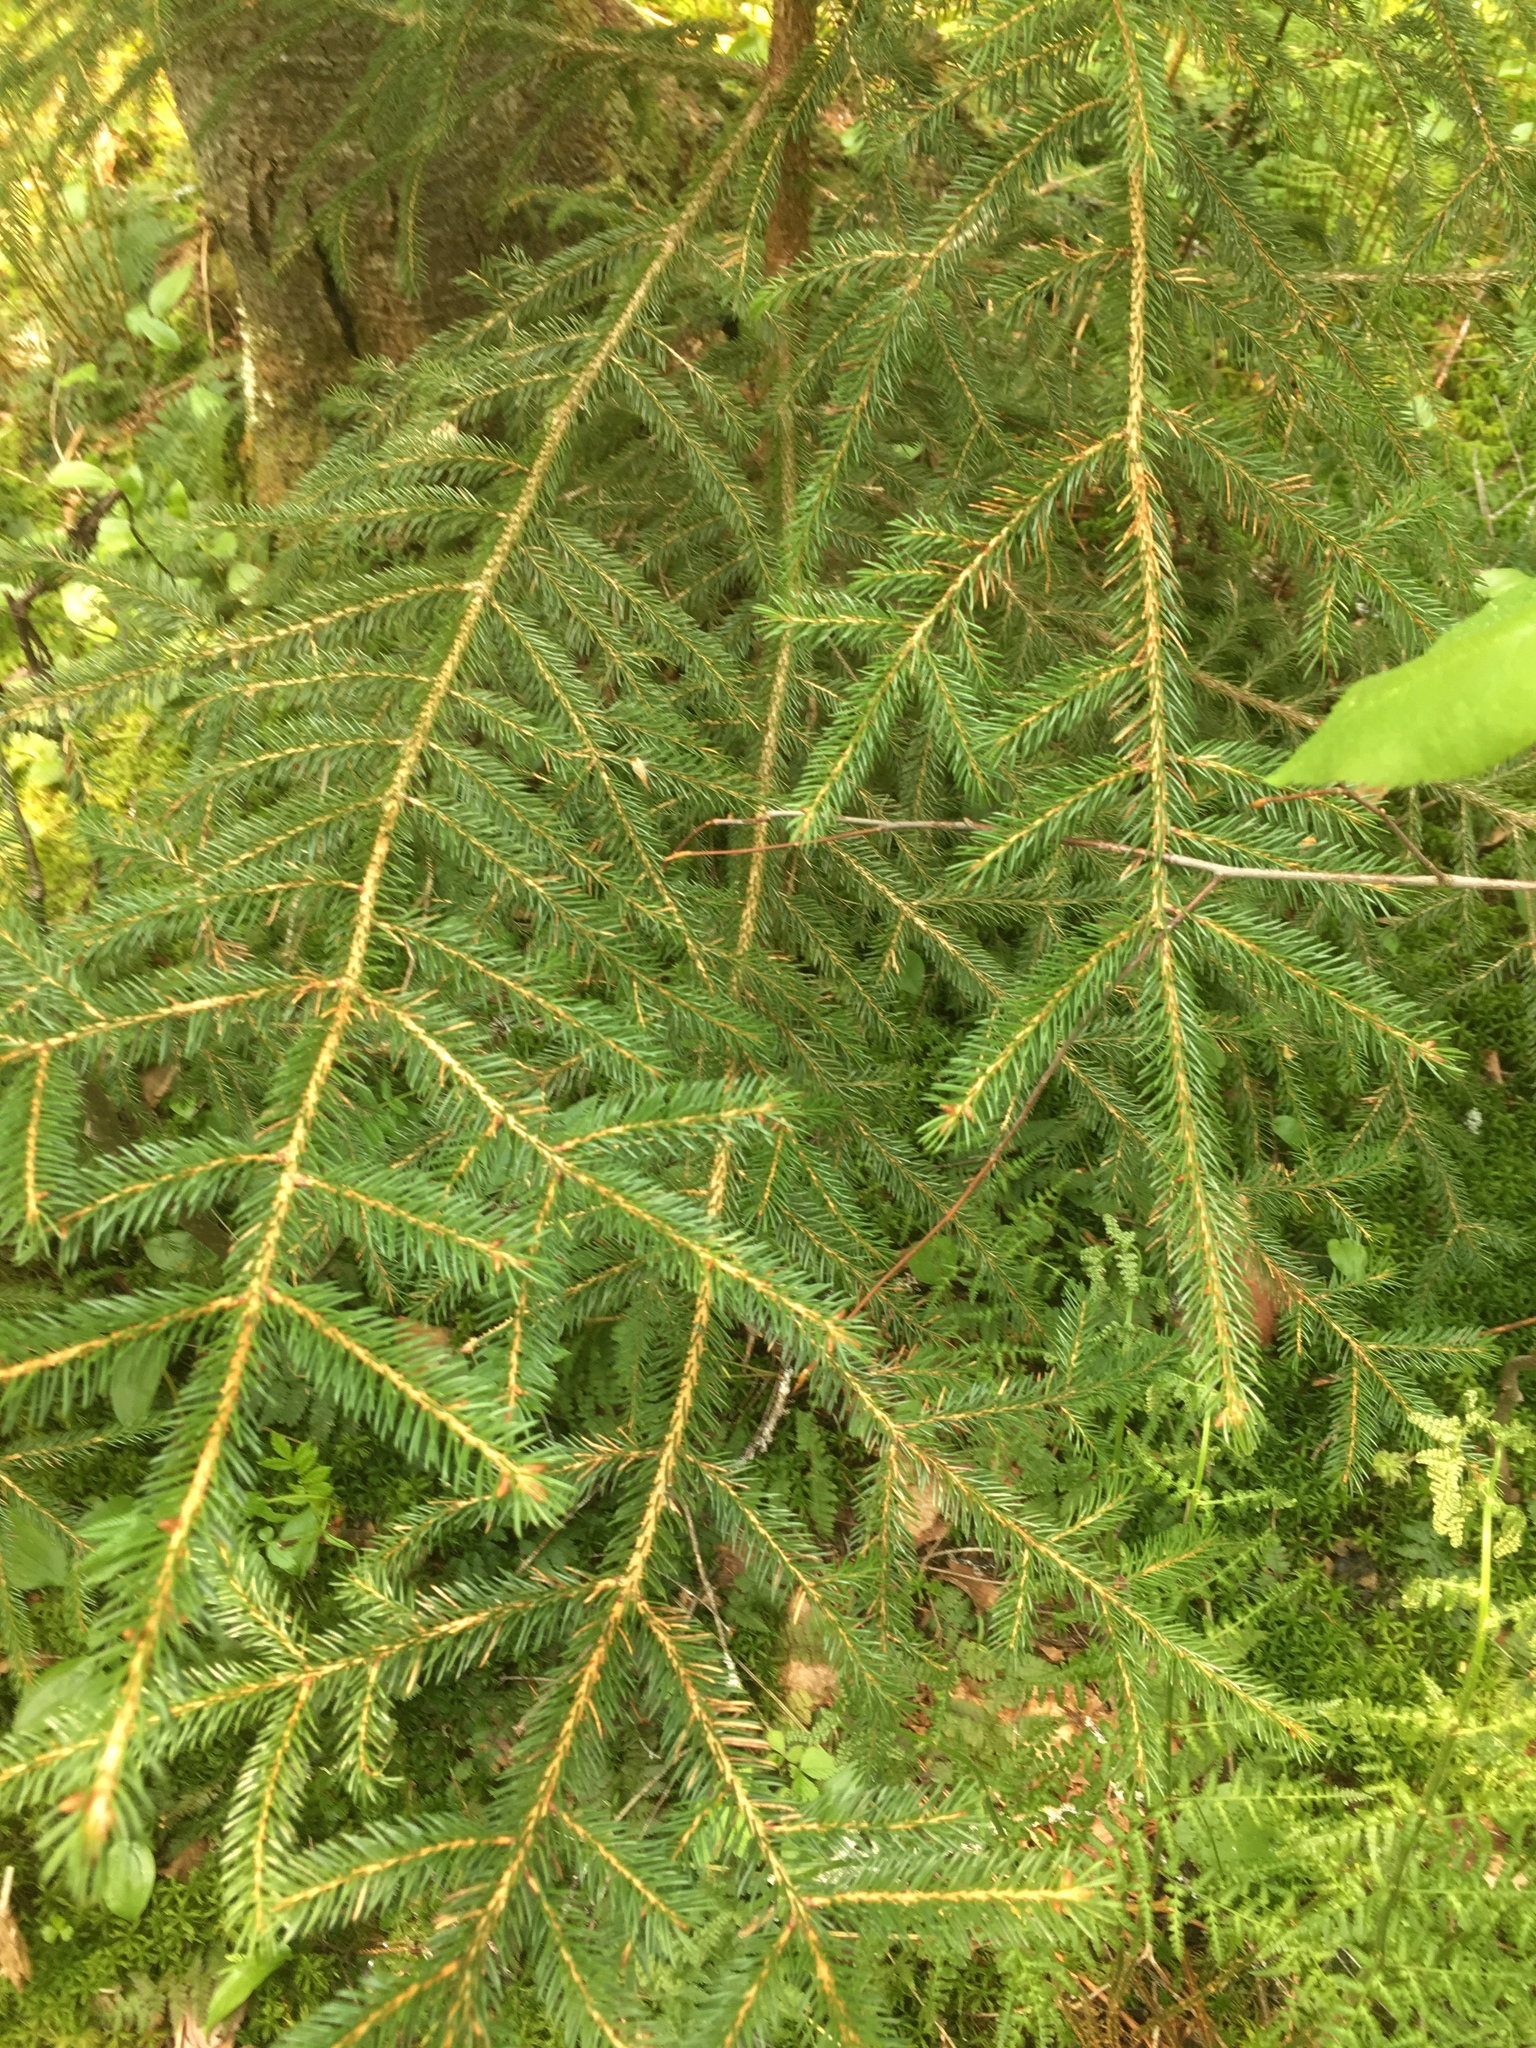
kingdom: Plantae
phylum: Tracheophyta
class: Pinopsida
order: Pinales
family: Pinaceae
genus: Picea
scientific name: Picea rubens
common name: Red spruce
